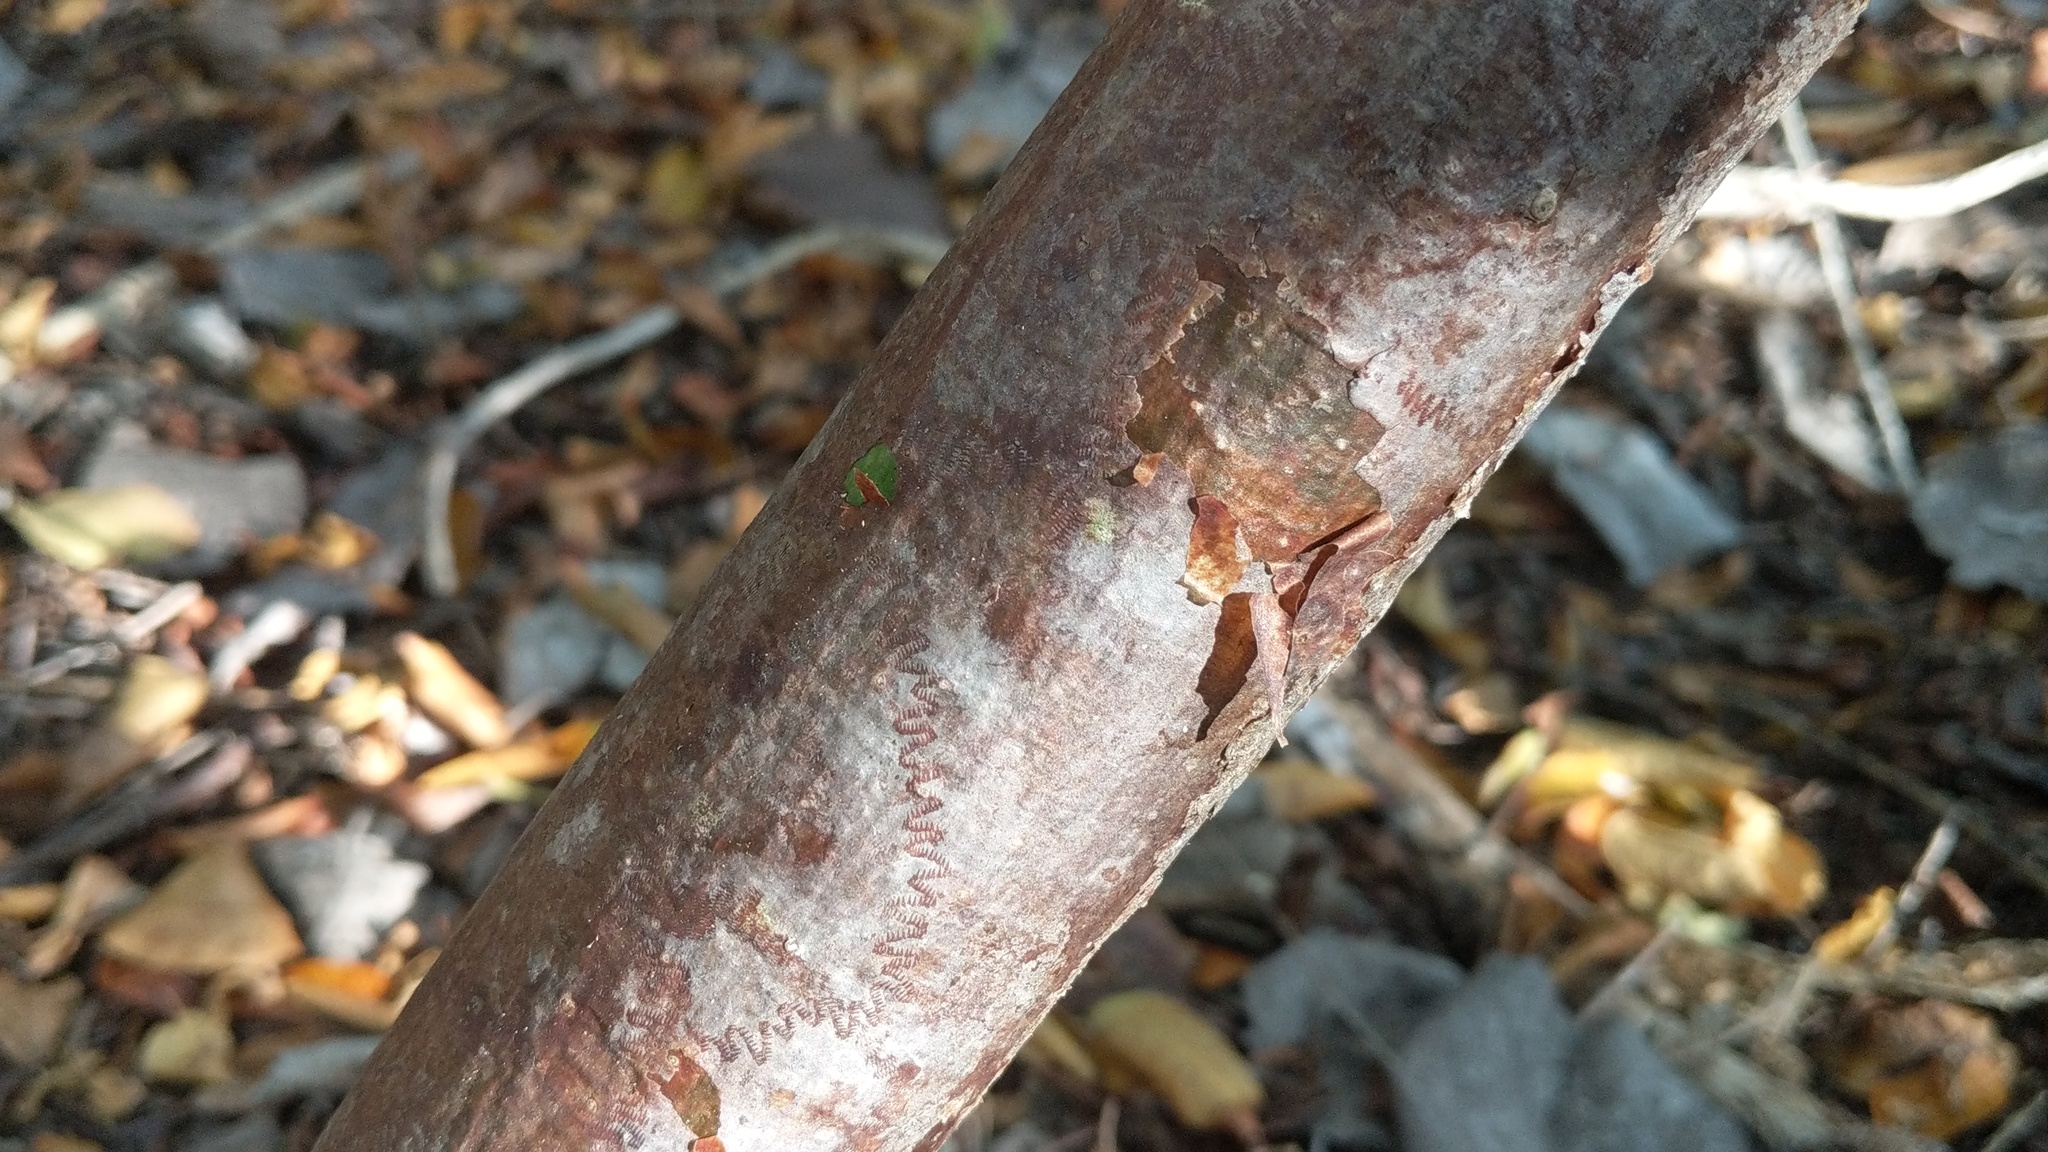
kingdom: Plantae
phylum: Tracheophyta
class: Magnoliopsida
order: Sapindales
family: Burseraceae
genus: Bursera
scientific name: Bursera simaruba
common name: Turpentine tree
